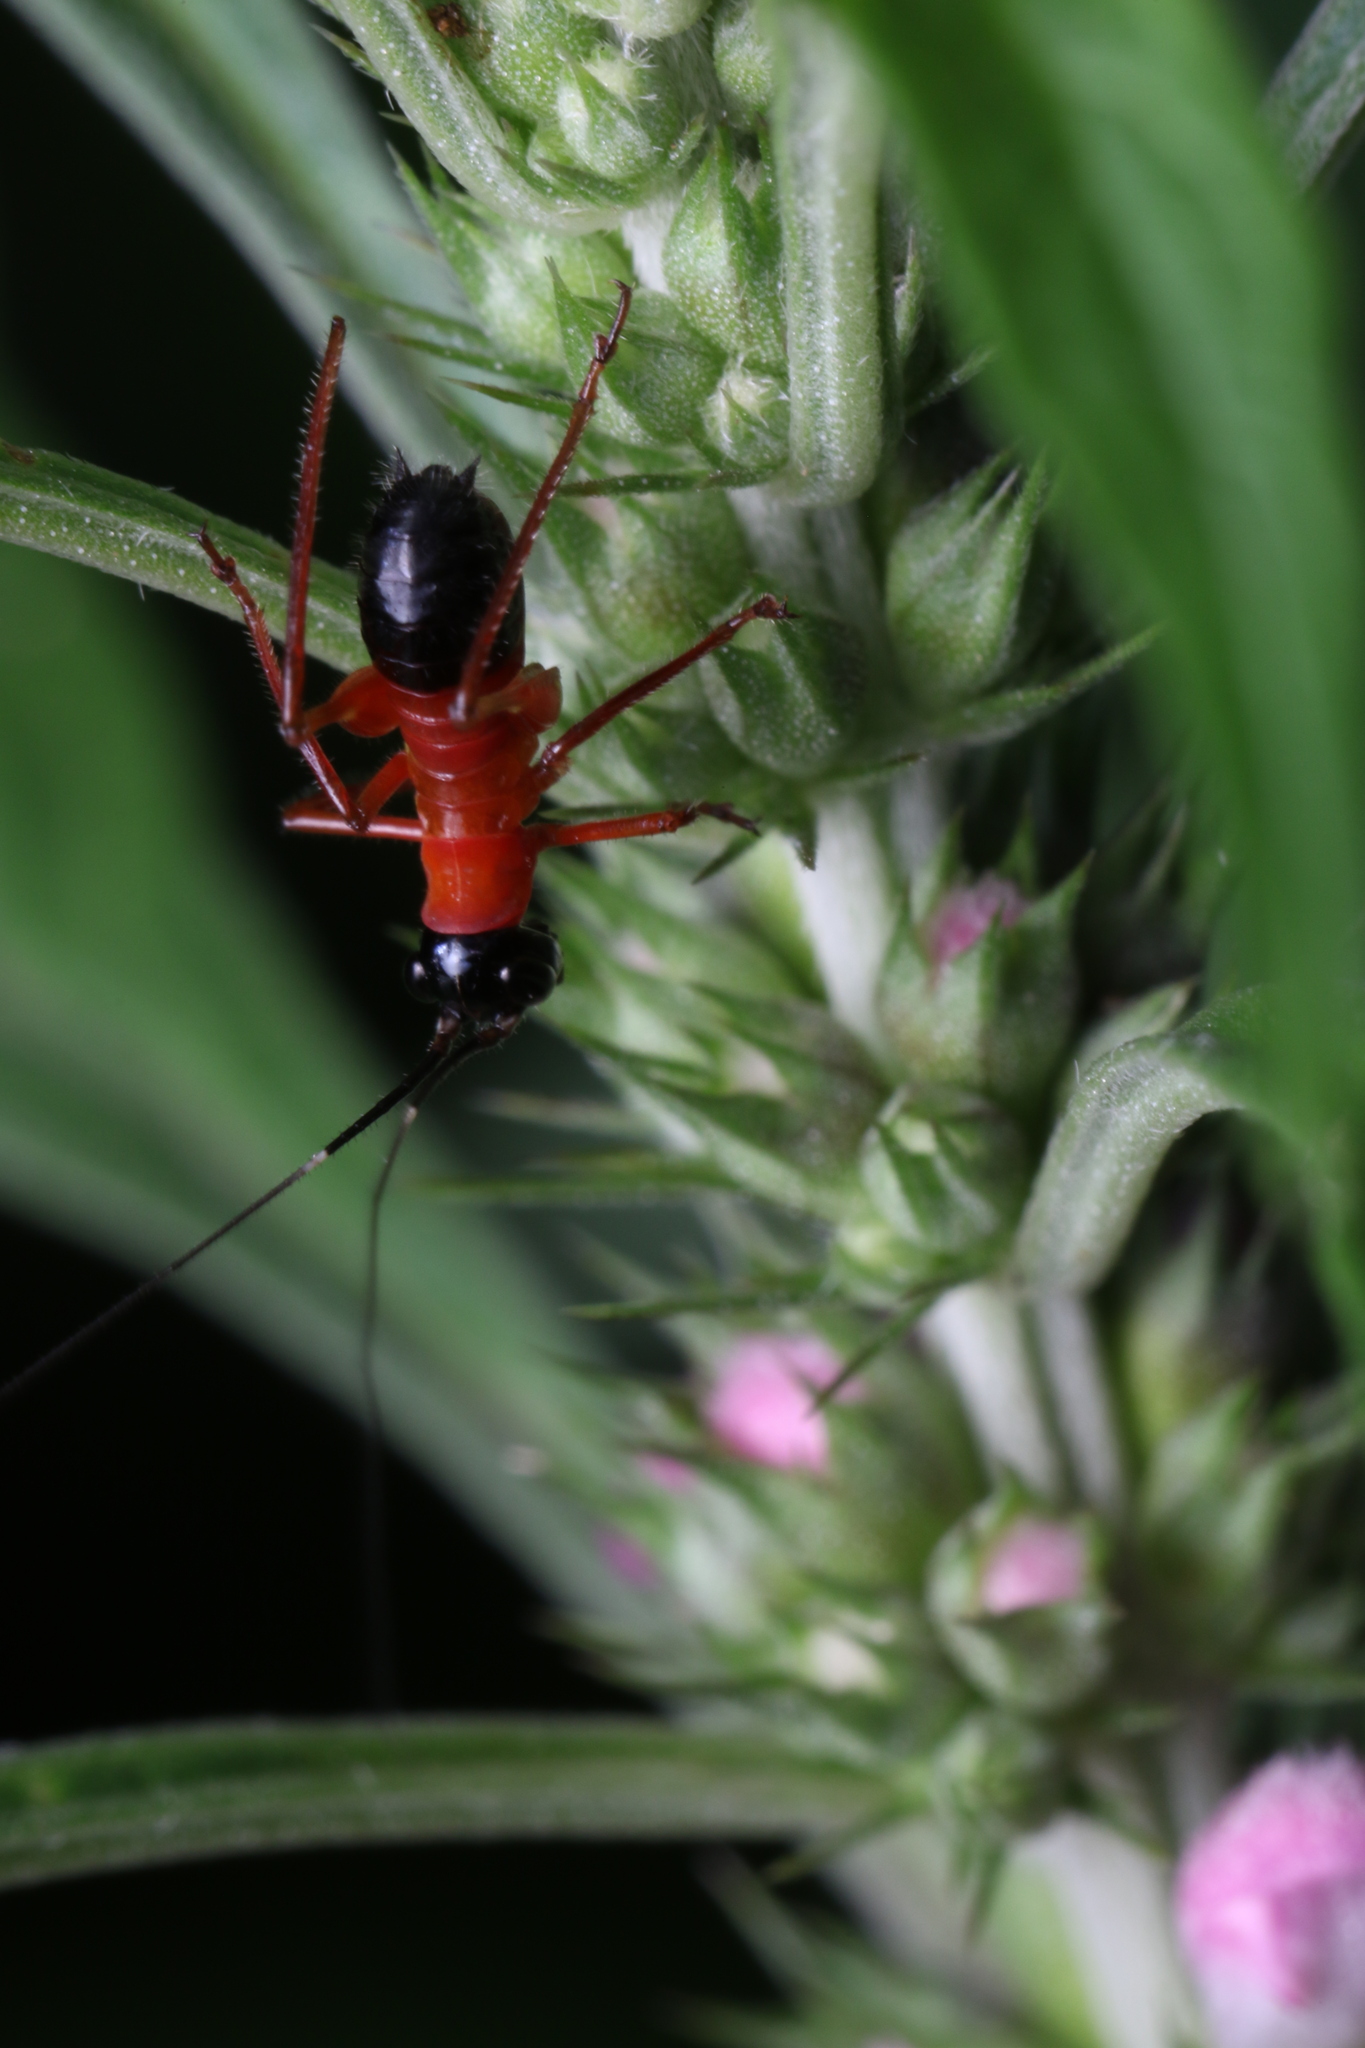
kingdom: Animalia
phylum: Arthropoda
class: Insecta
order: Orthoptera
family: Tettigoniidae
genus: Scaphura
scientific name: Scaphura nigra
